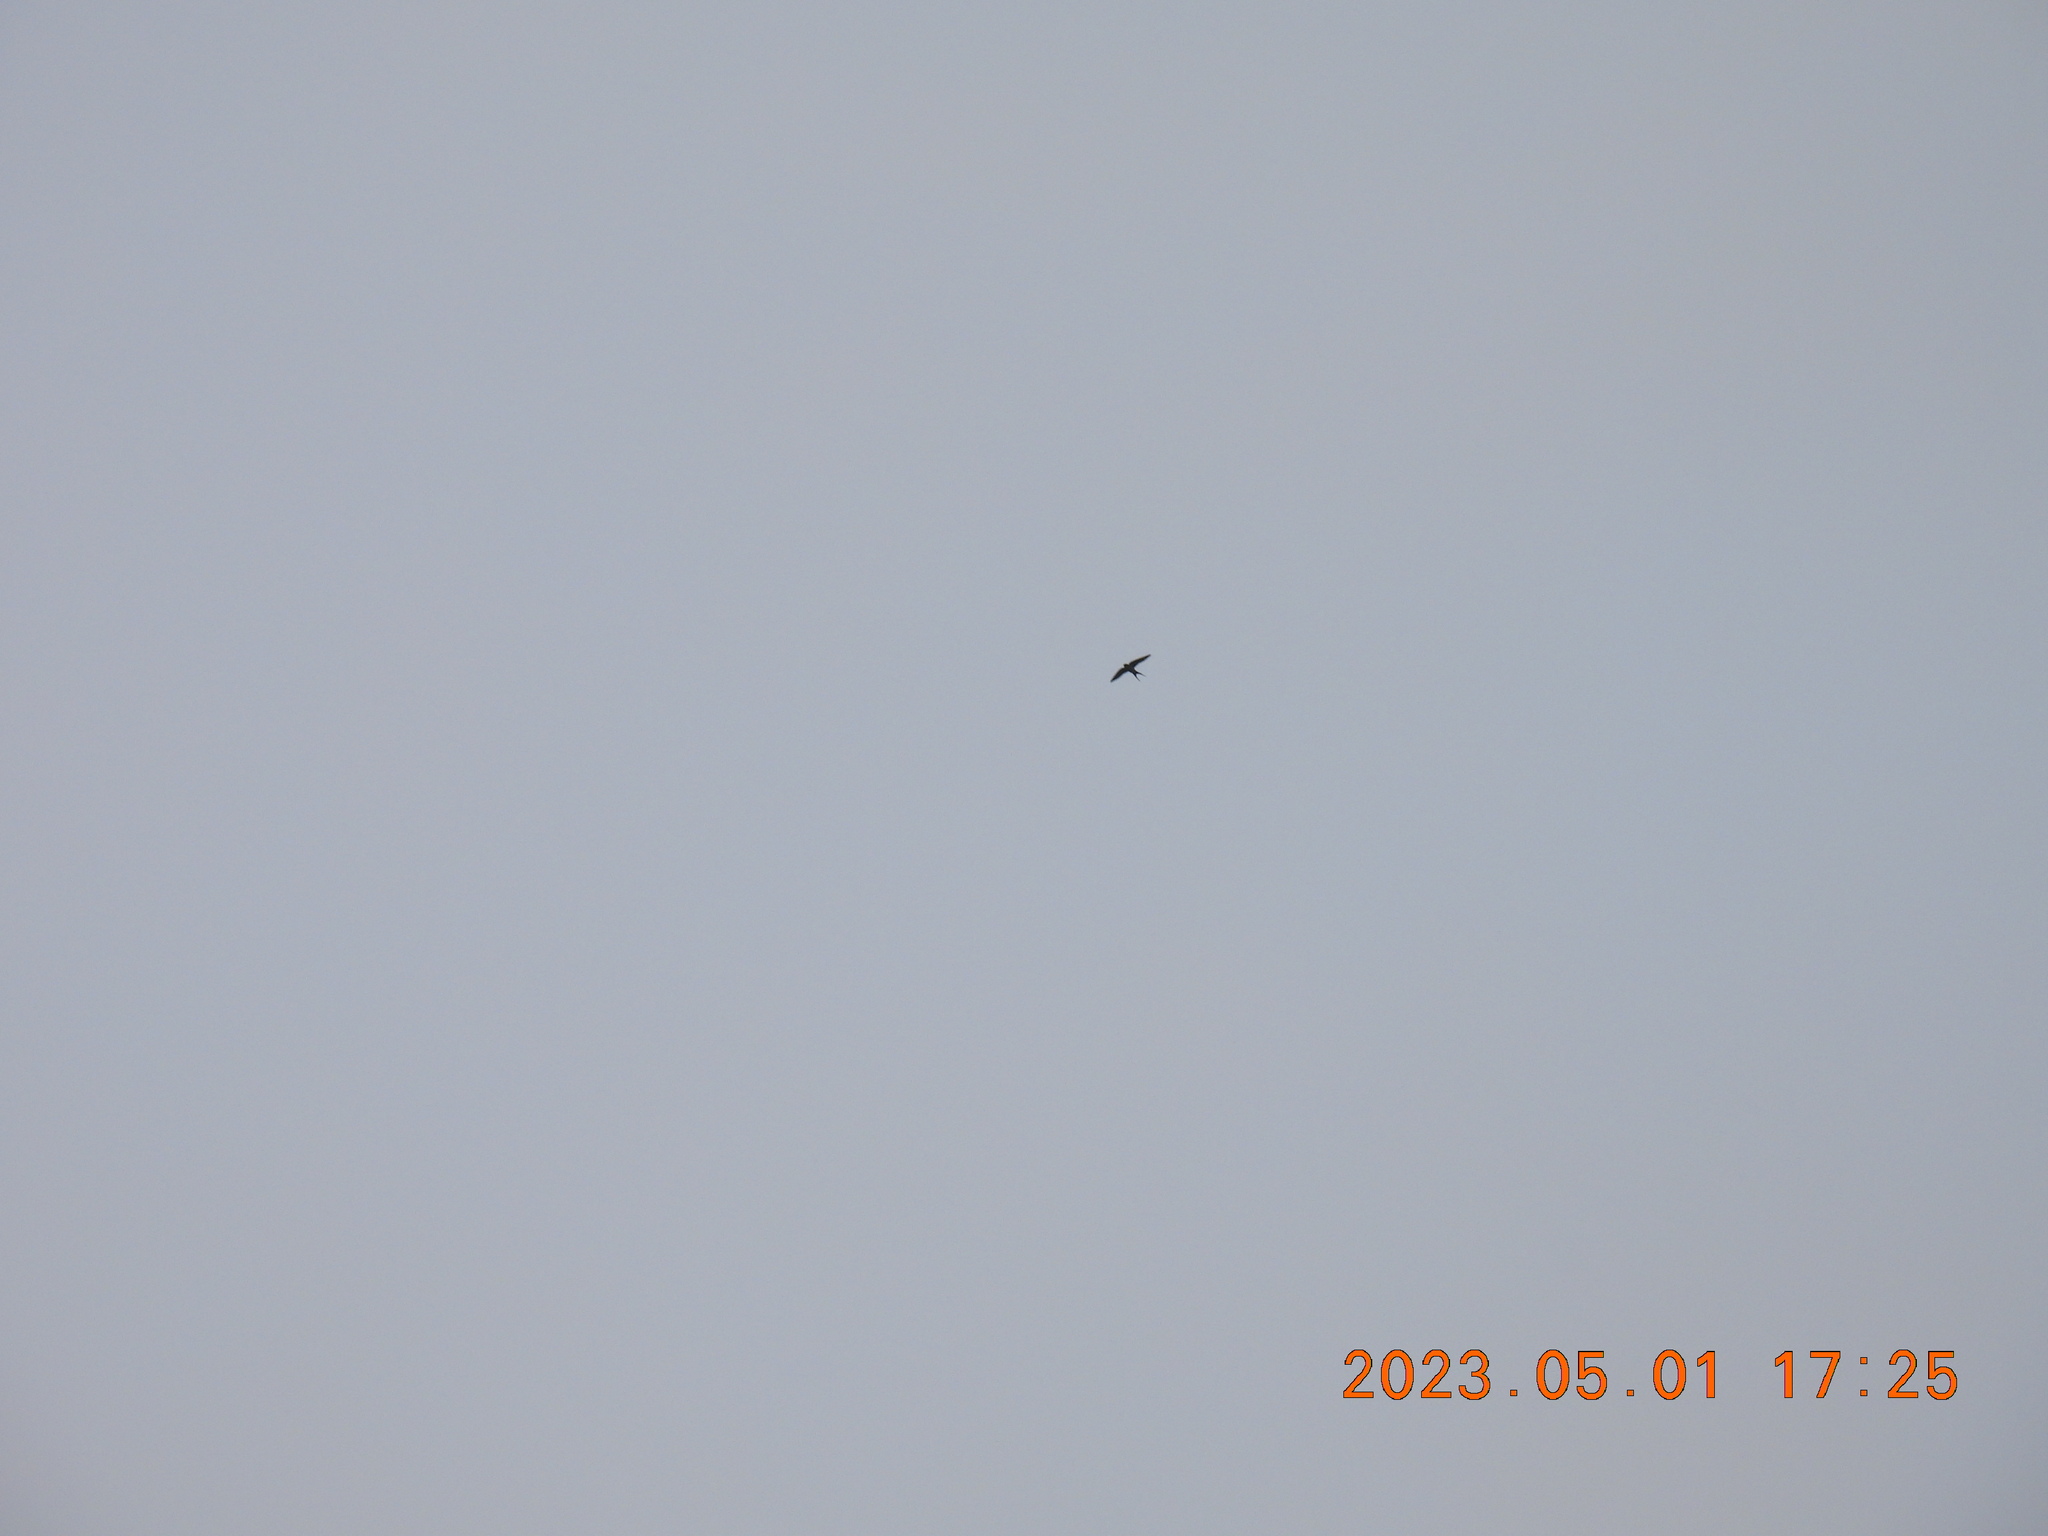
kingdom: Animalia
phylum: Chordata
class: Aves
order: Passeriformes
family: Hirundinidae
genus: Cecropis
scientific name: Cecropis striolata
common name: Striated swallow
